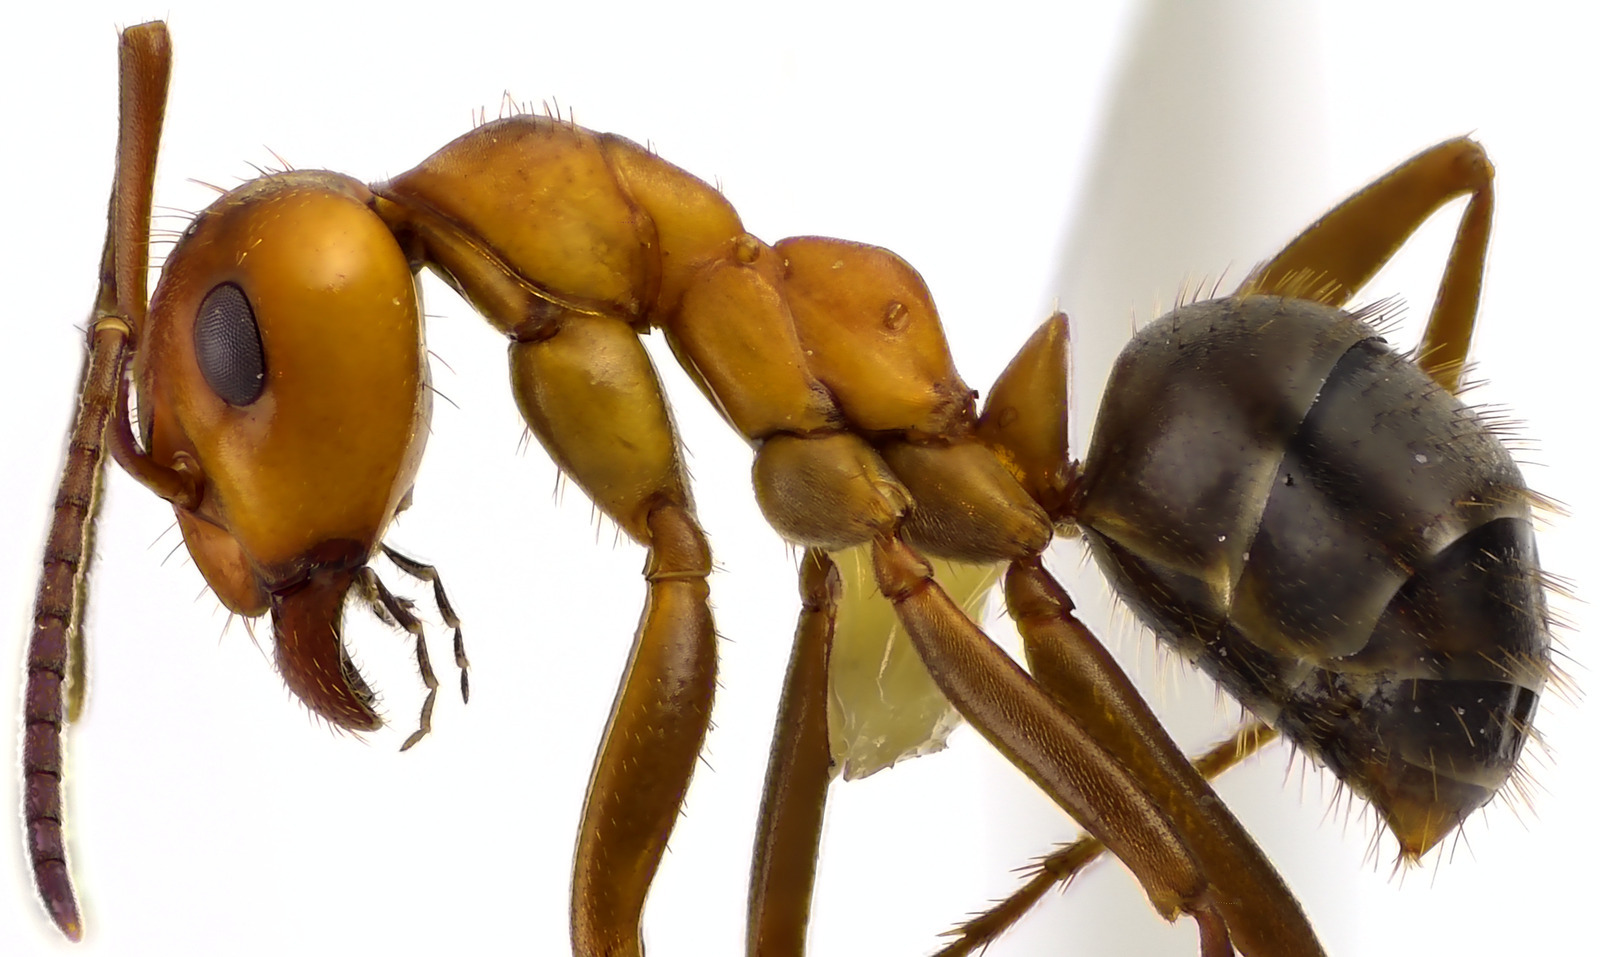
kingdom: Animalia
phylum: Arthropoda
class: Insecta
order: Hymenoptera
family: Formicidae
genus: Formica
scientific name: Formica pergandei
